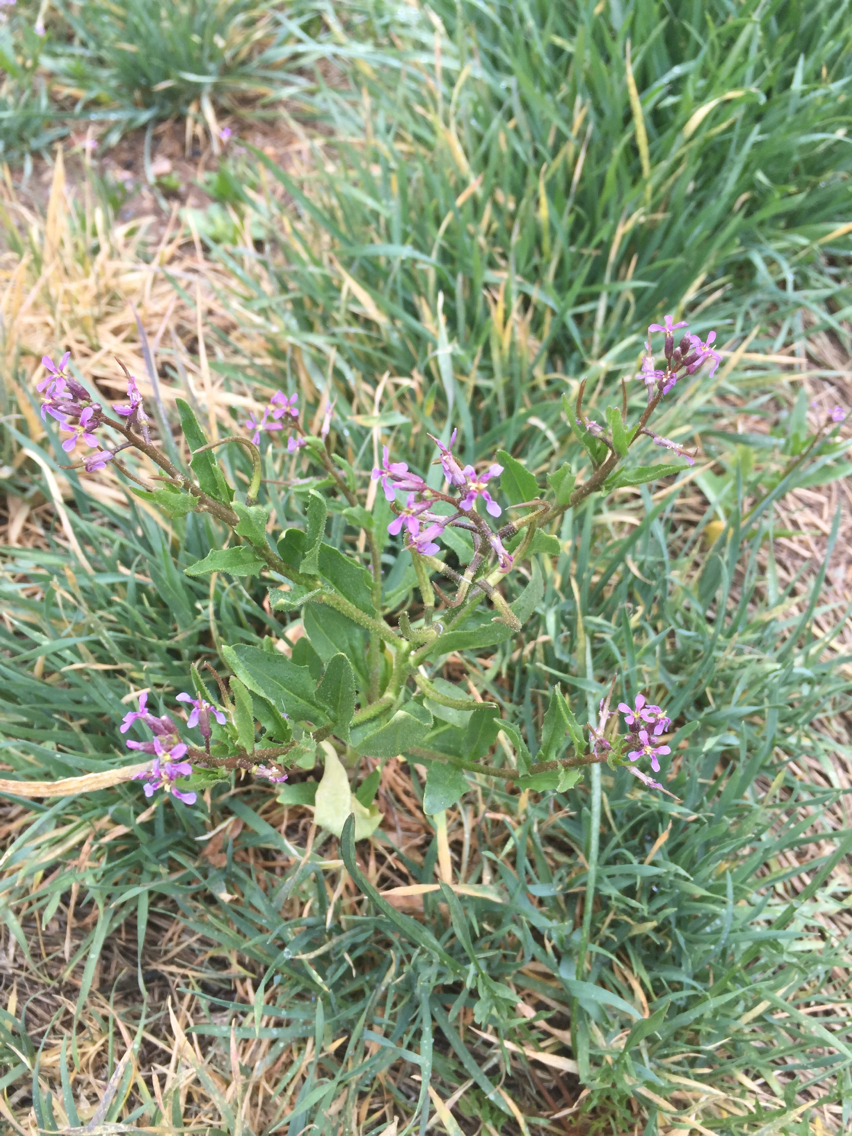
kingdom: Plantae
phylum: Tracheophyta
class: Magnoliopsida
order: Brassicales
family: Brassicaceae
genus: Chorispora
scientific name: Chorispora tenella
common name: Crossflower
